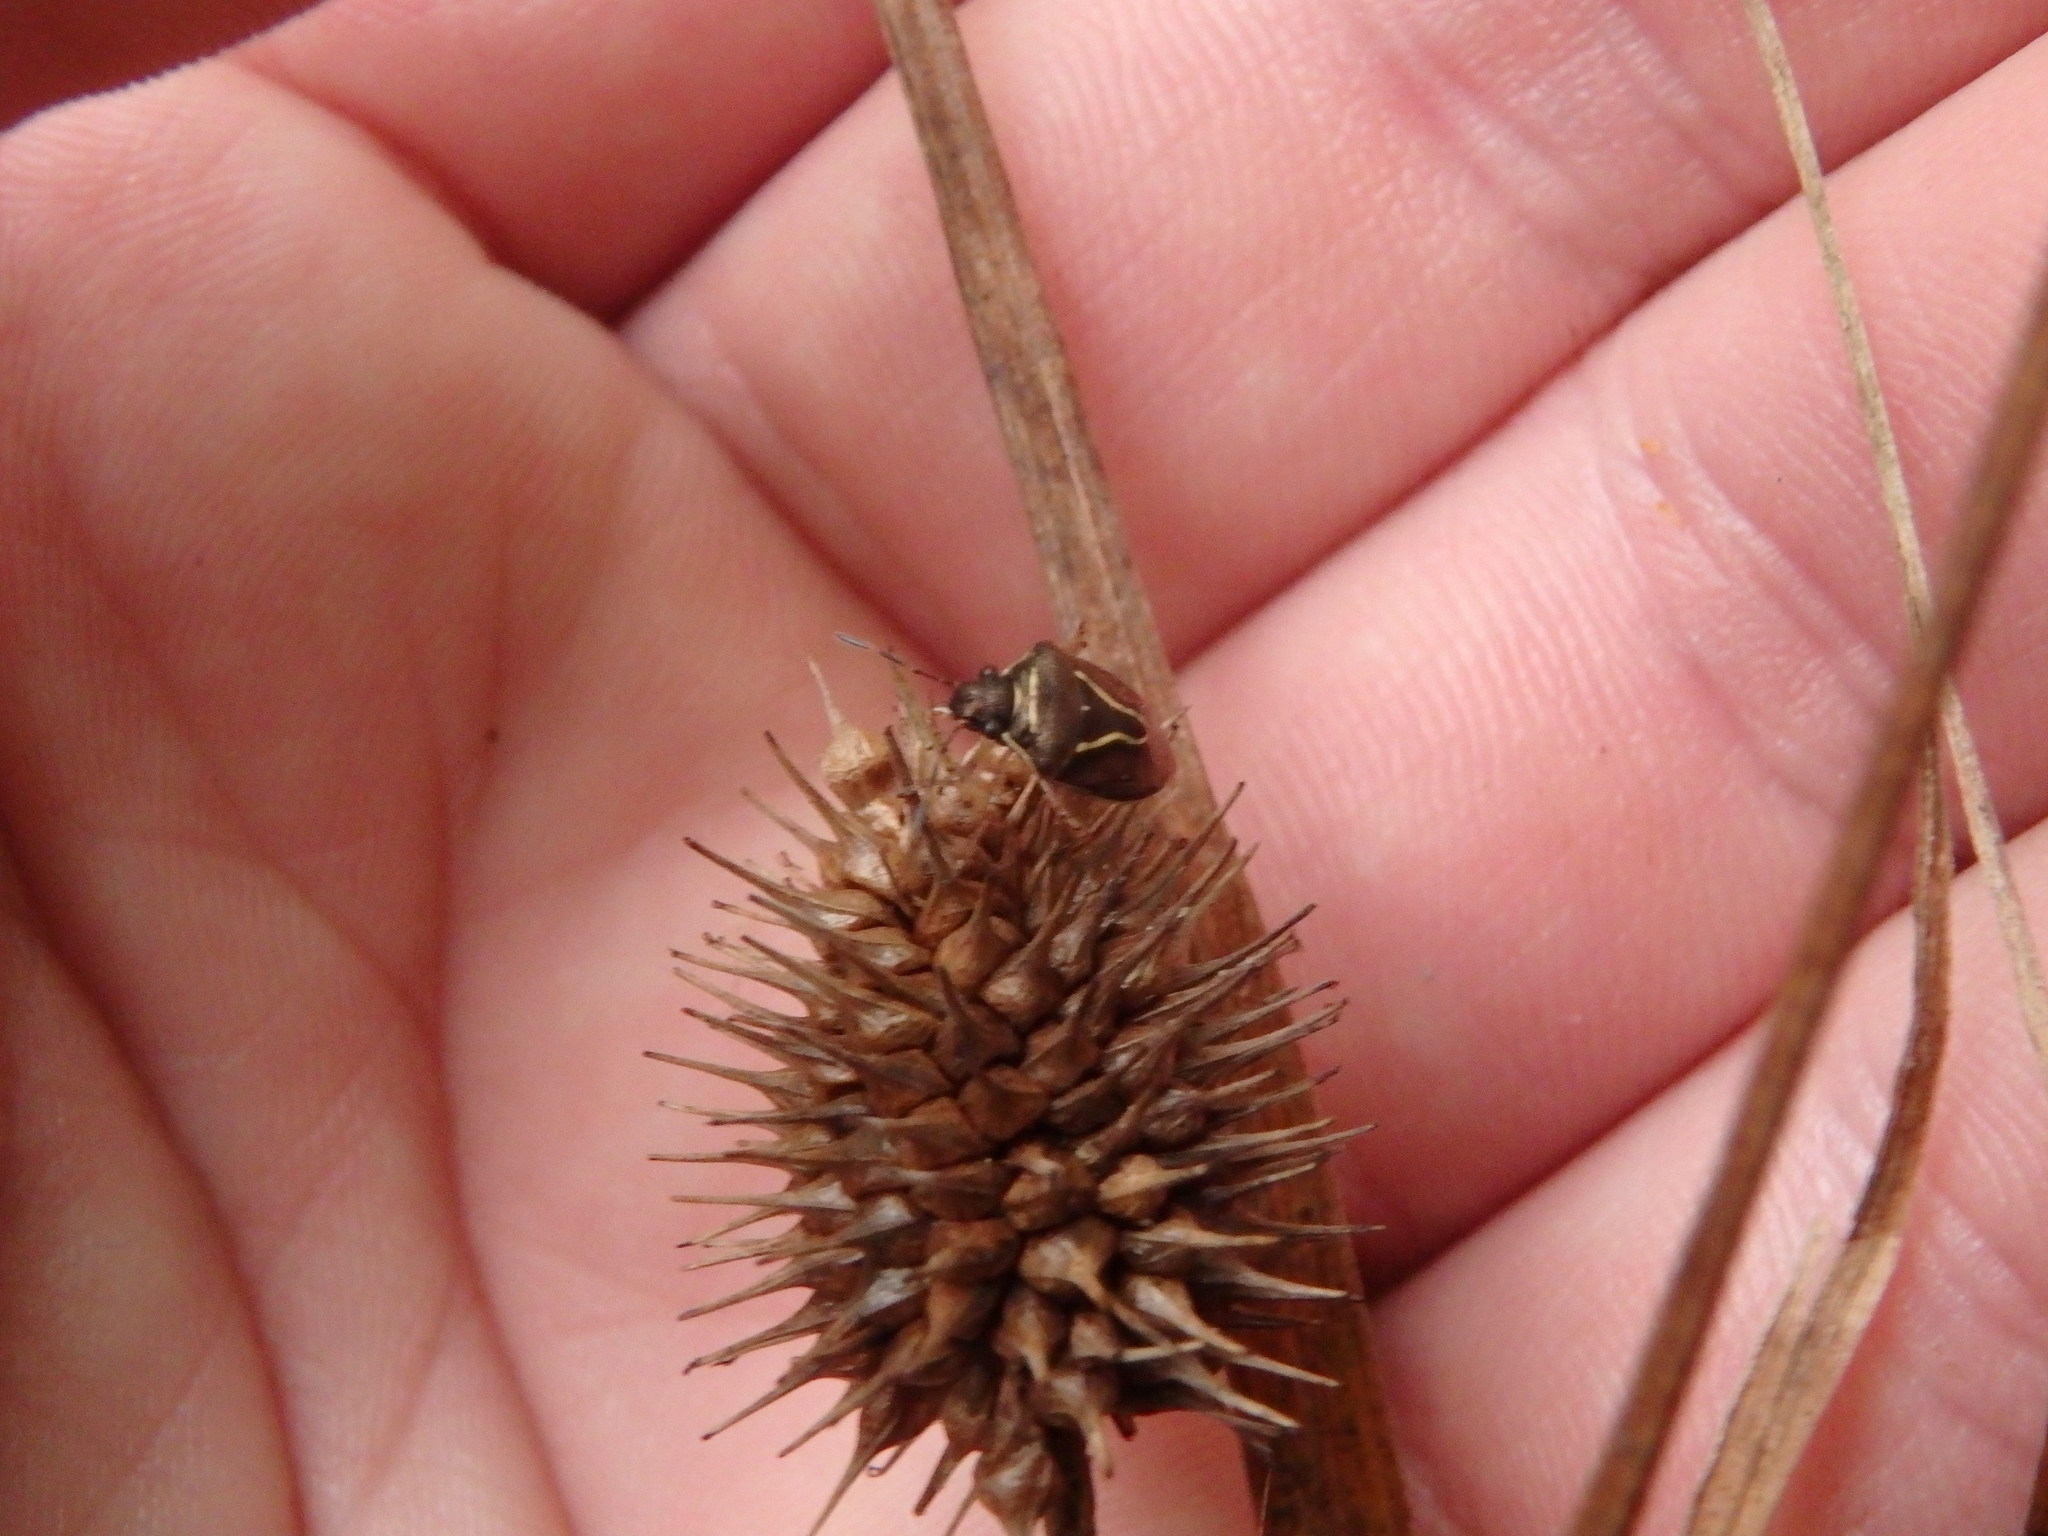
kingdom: Animalia
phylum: Arthropoda
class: Insecta
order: Hemiptera
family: Pentatomidae
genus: Mormidea
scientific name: Mormidea lugens
